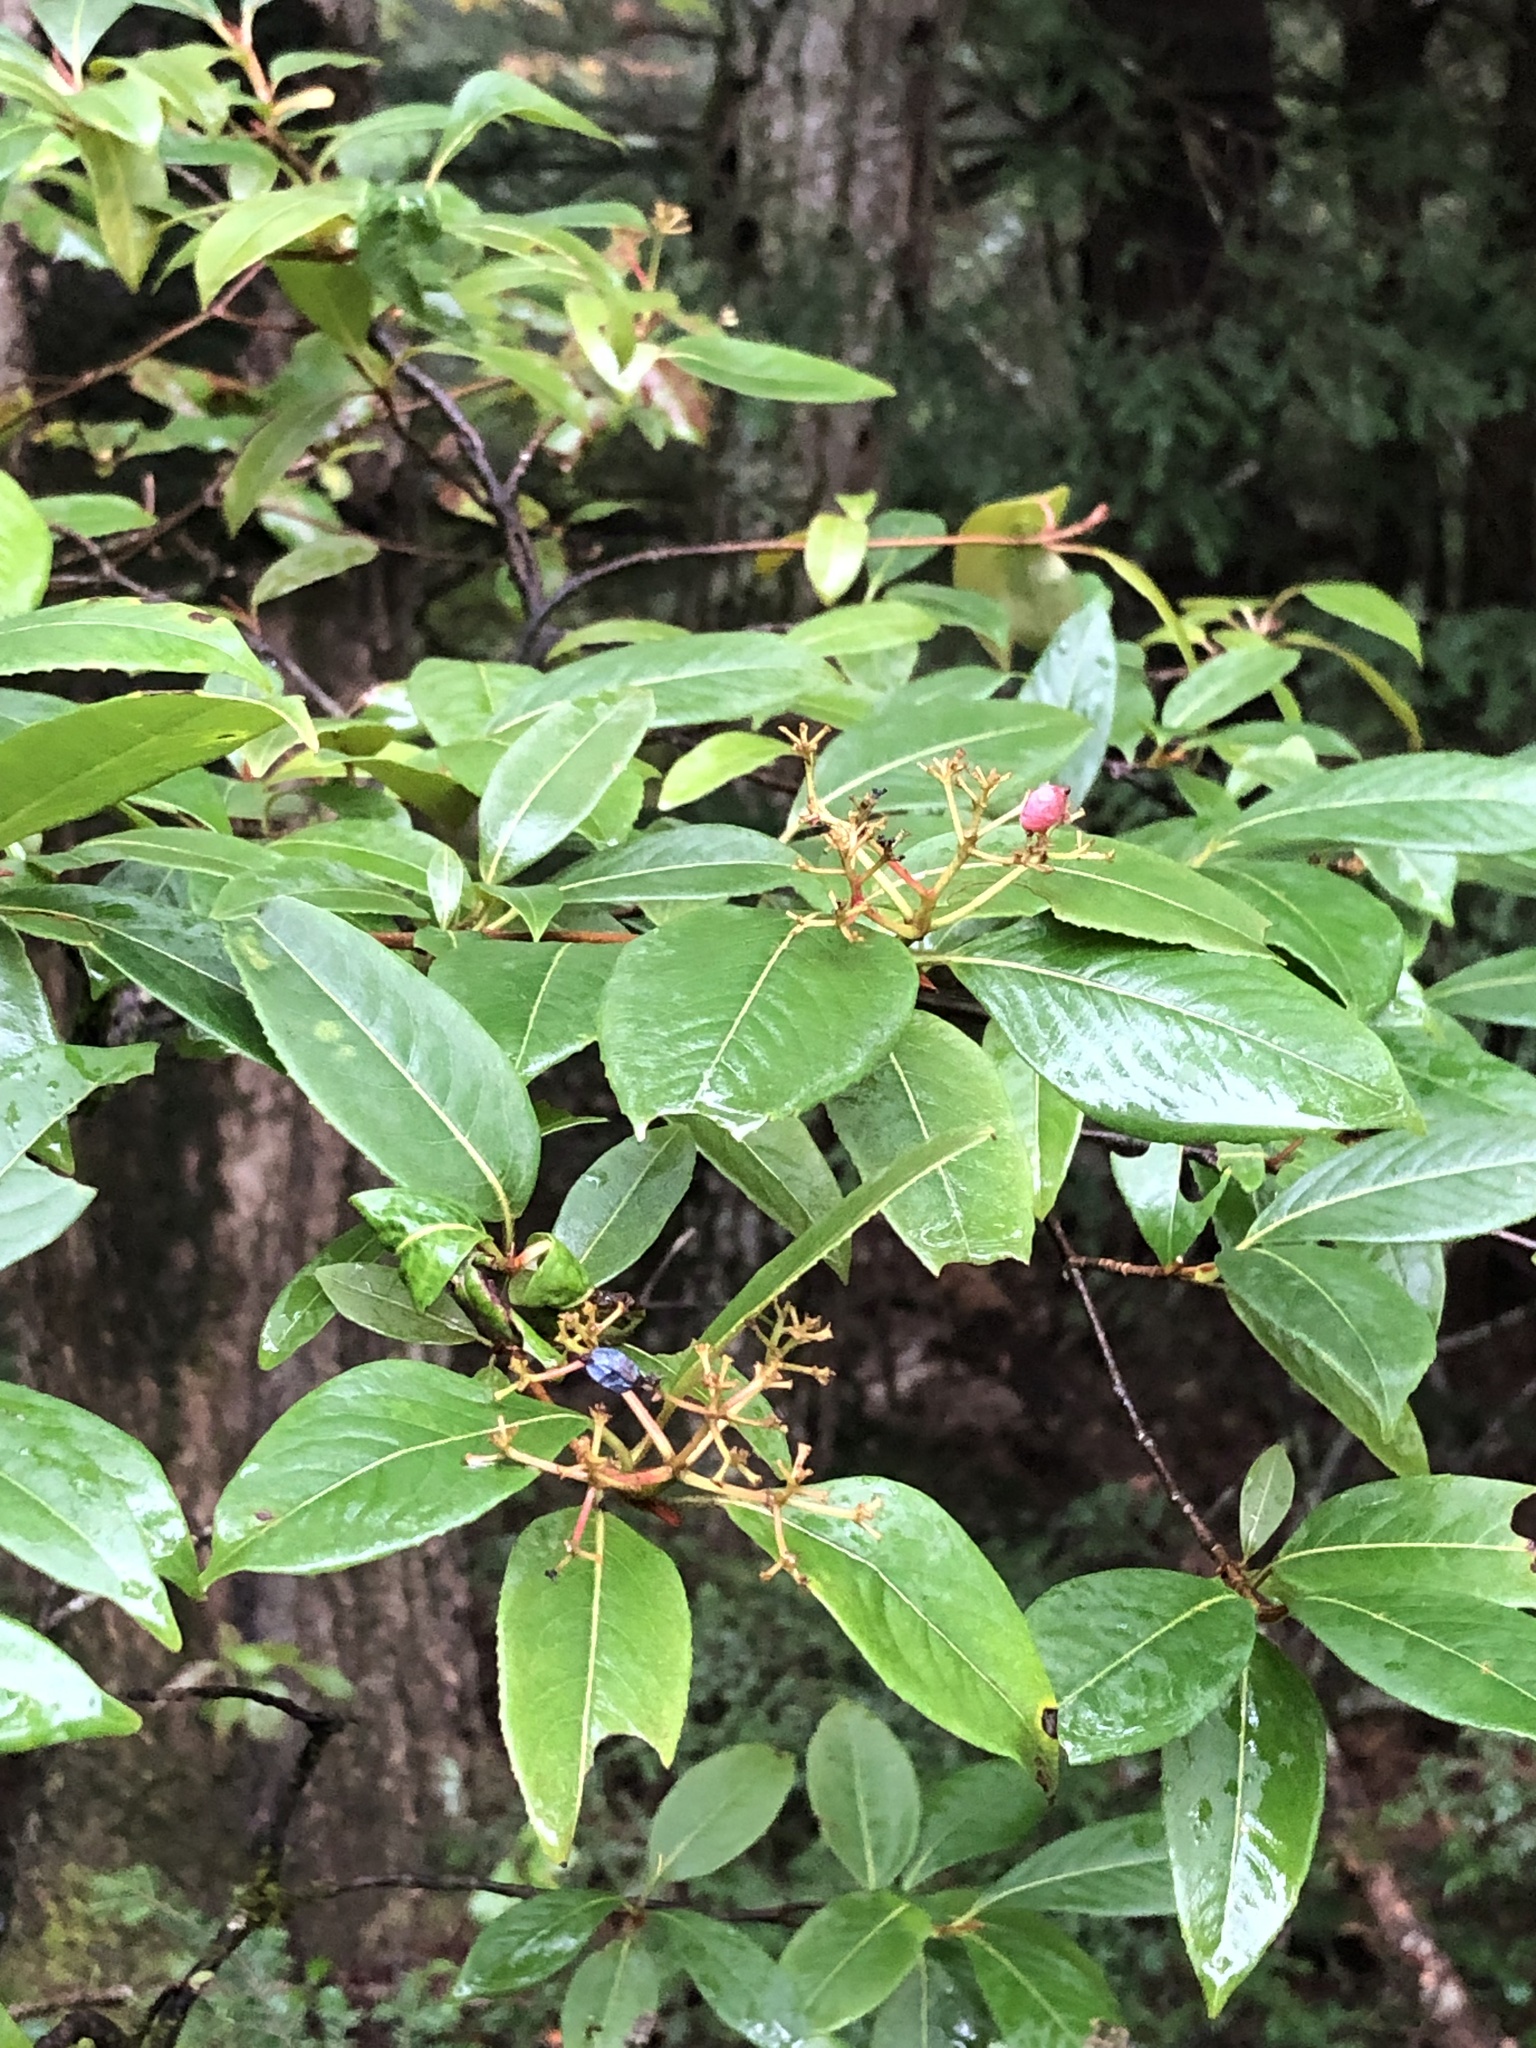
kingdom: Plantae
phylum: Tracheophyta
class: Magnoliopsida
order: Dipsacales
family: Viburnaceae
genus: Viburnum
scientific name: Viburnum cassinoides
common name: Swamp haw
